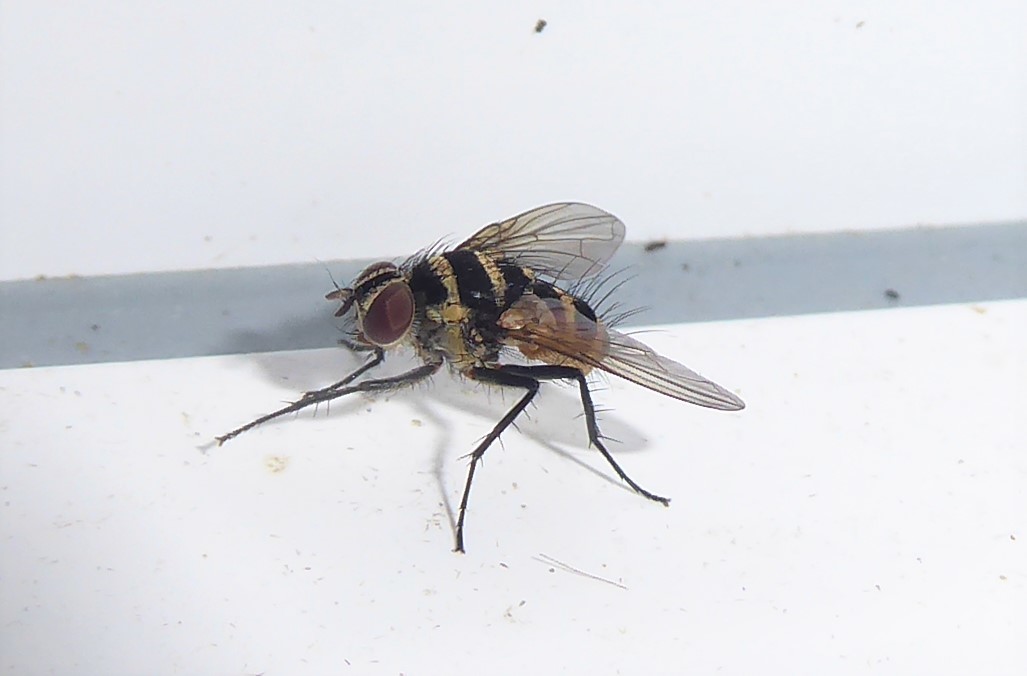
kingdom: Animalia
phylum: Arthropoda
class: Insecta
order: Diptera
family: Tachinidae
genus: Trigonospila
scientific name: Trigonospila brevifacies
